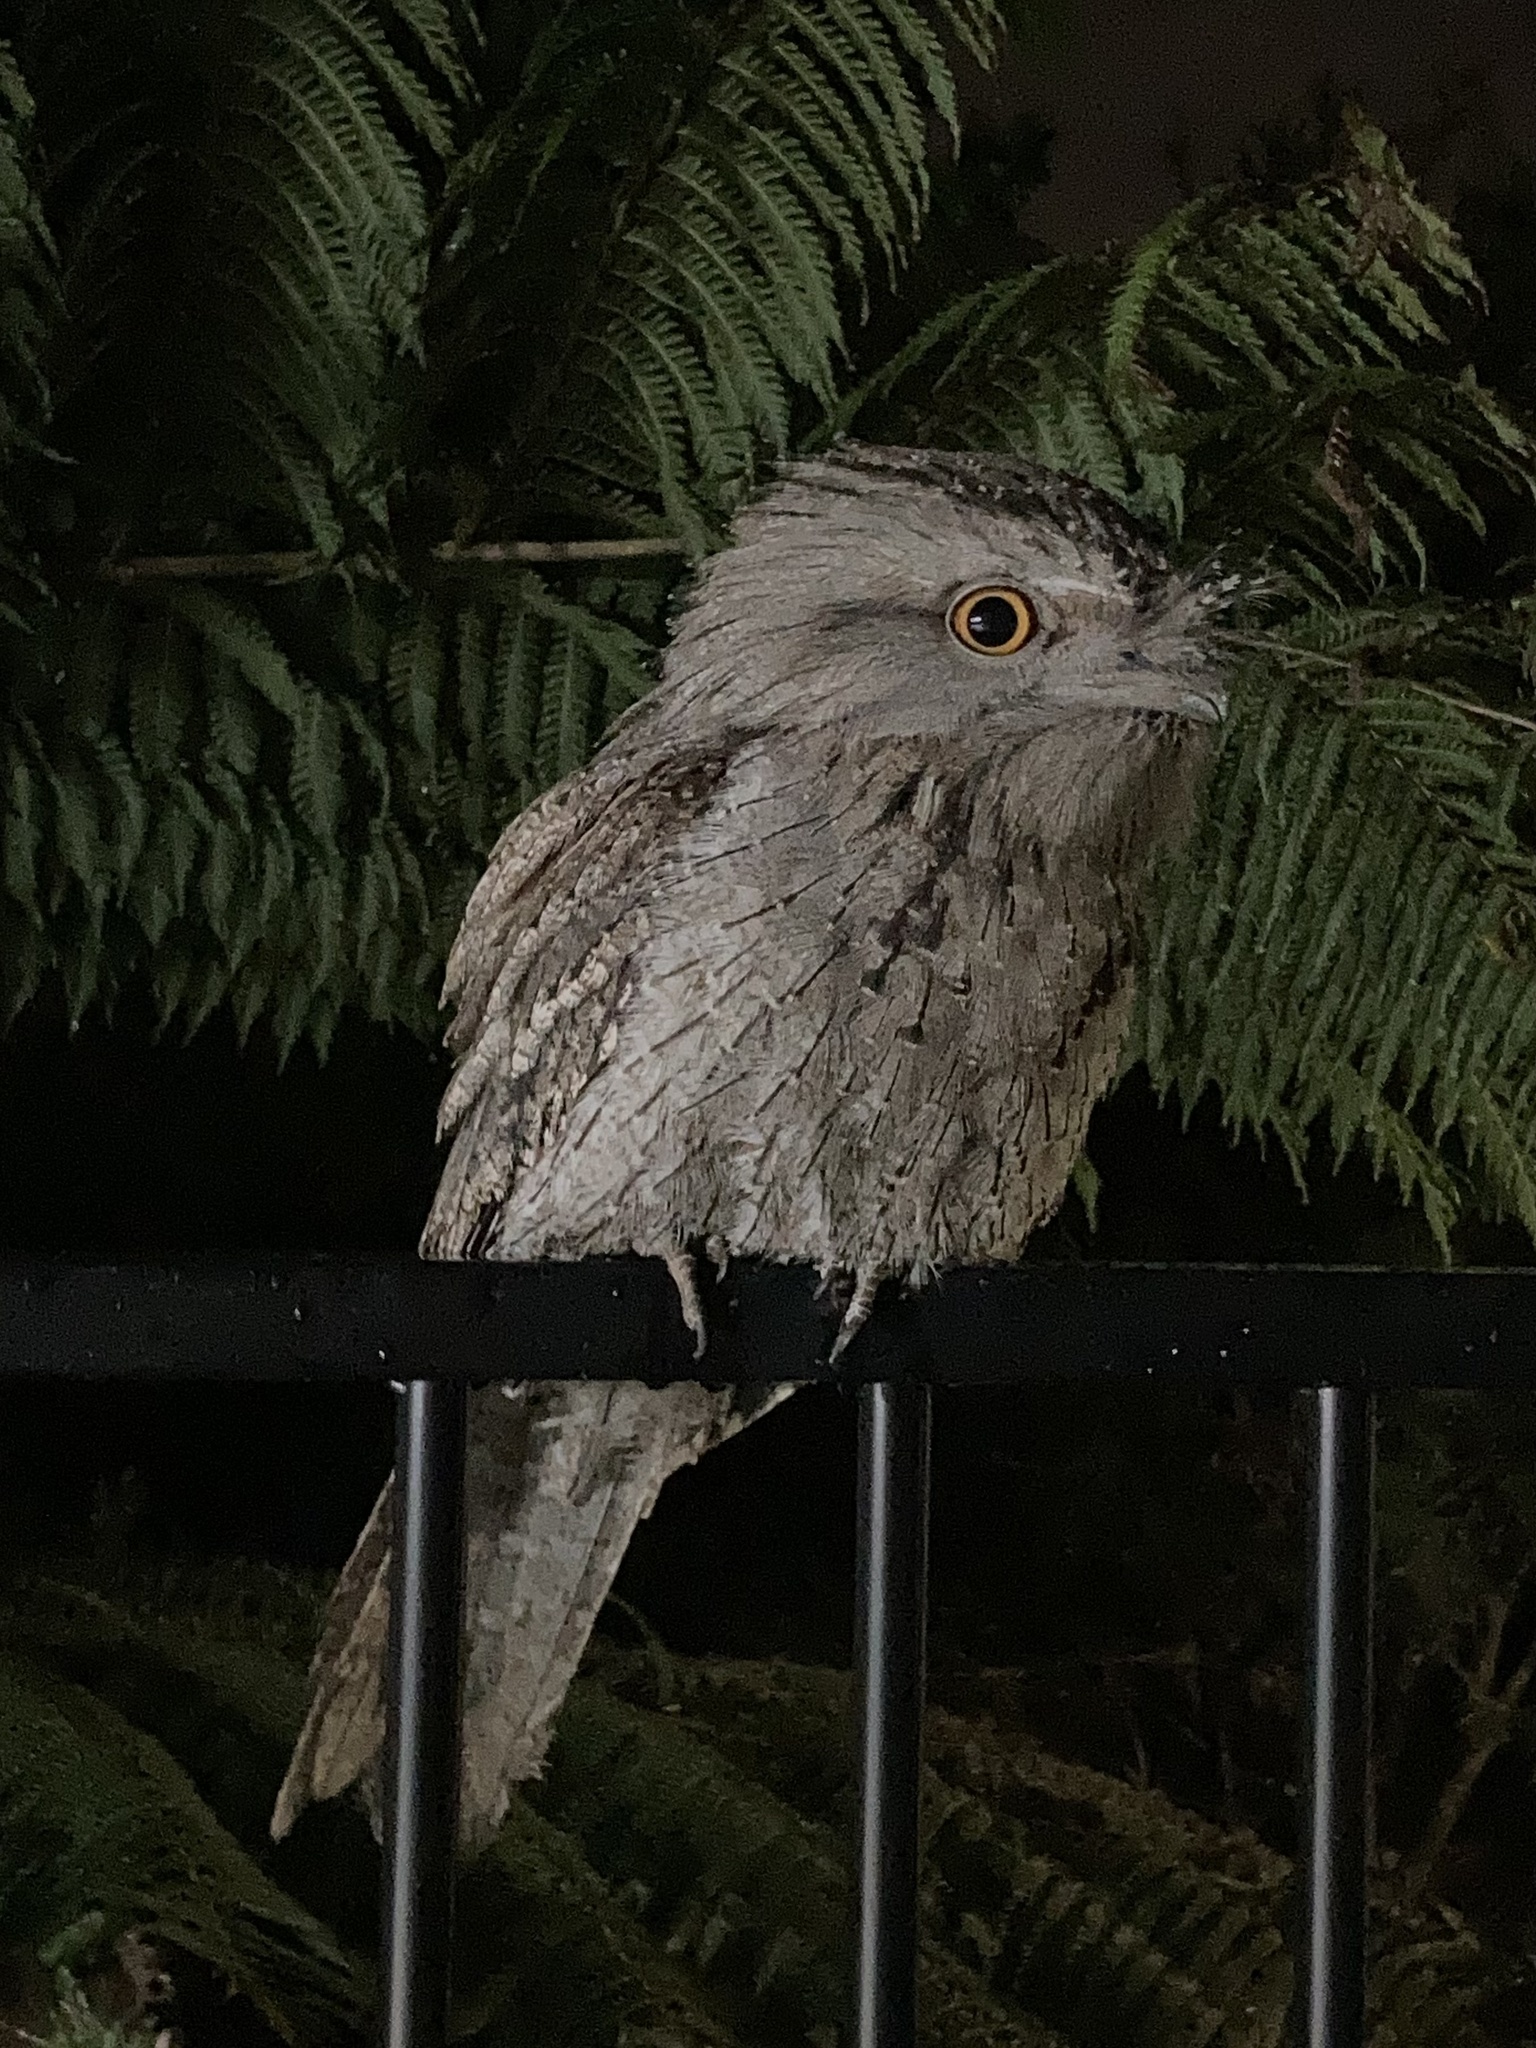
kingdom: Animalia
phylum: Chordata
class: Aves
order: Caprimulgiformes
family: Podargidae
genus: Podargus
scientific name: Podargus strigoides
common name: Tawny frogmouth
